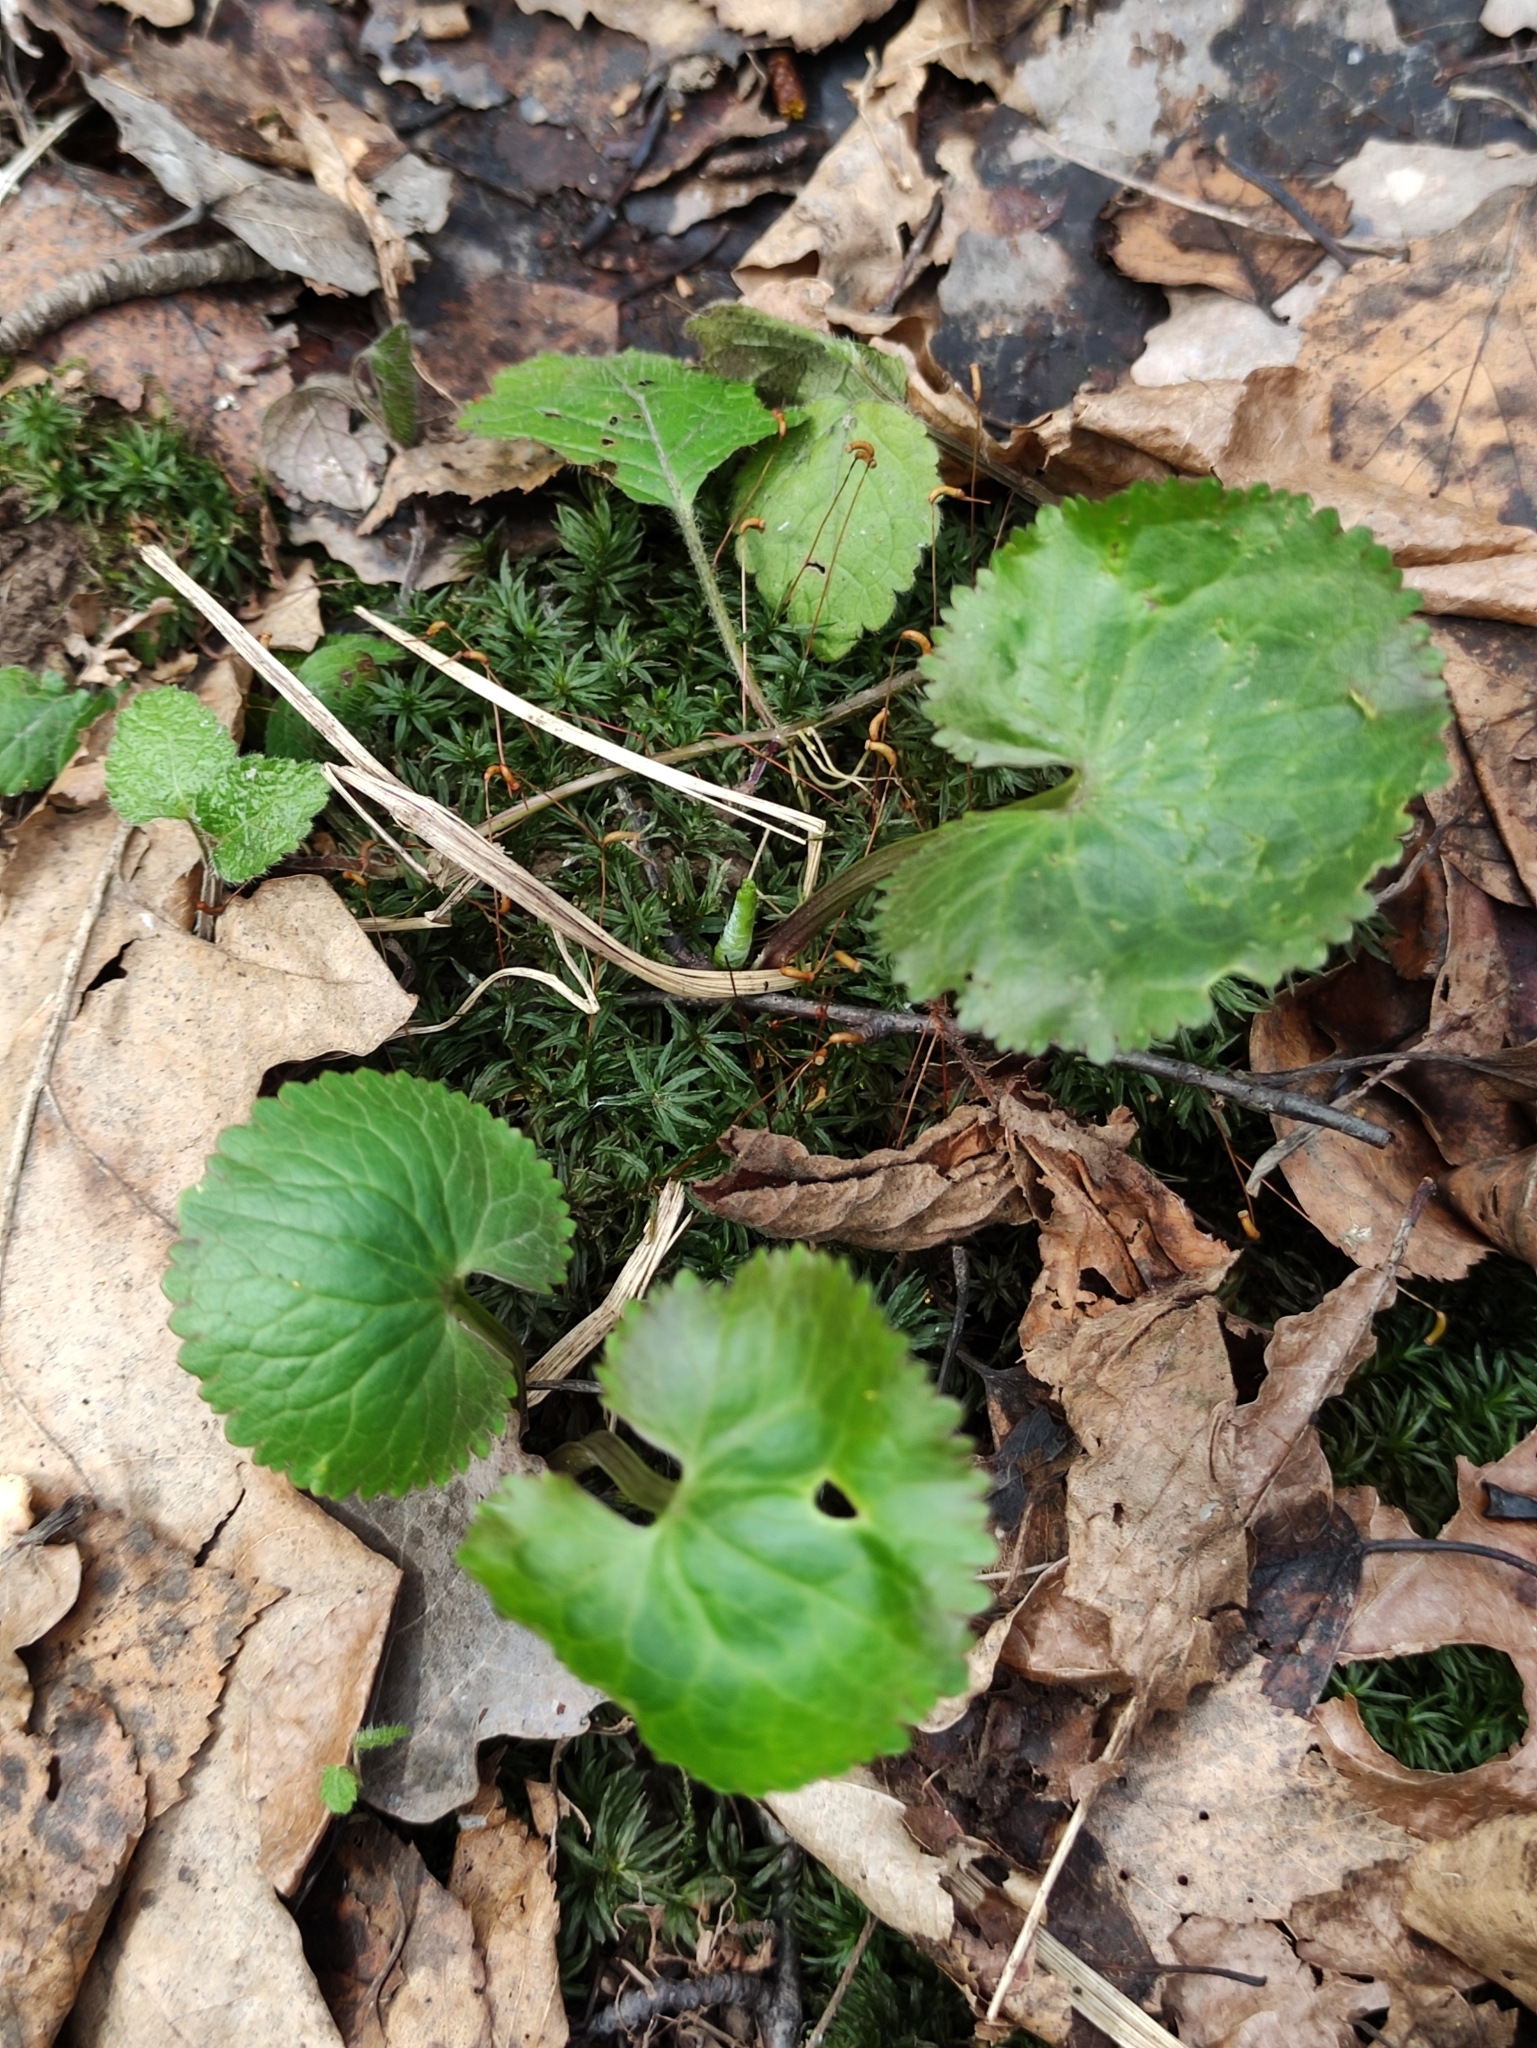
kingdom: Plantae
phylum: Tracheophyta
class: Magnoliopsida
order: Ranunculales
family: Ranunculaceae
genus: Ranunculus
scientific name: Ranunculus cassubicus
